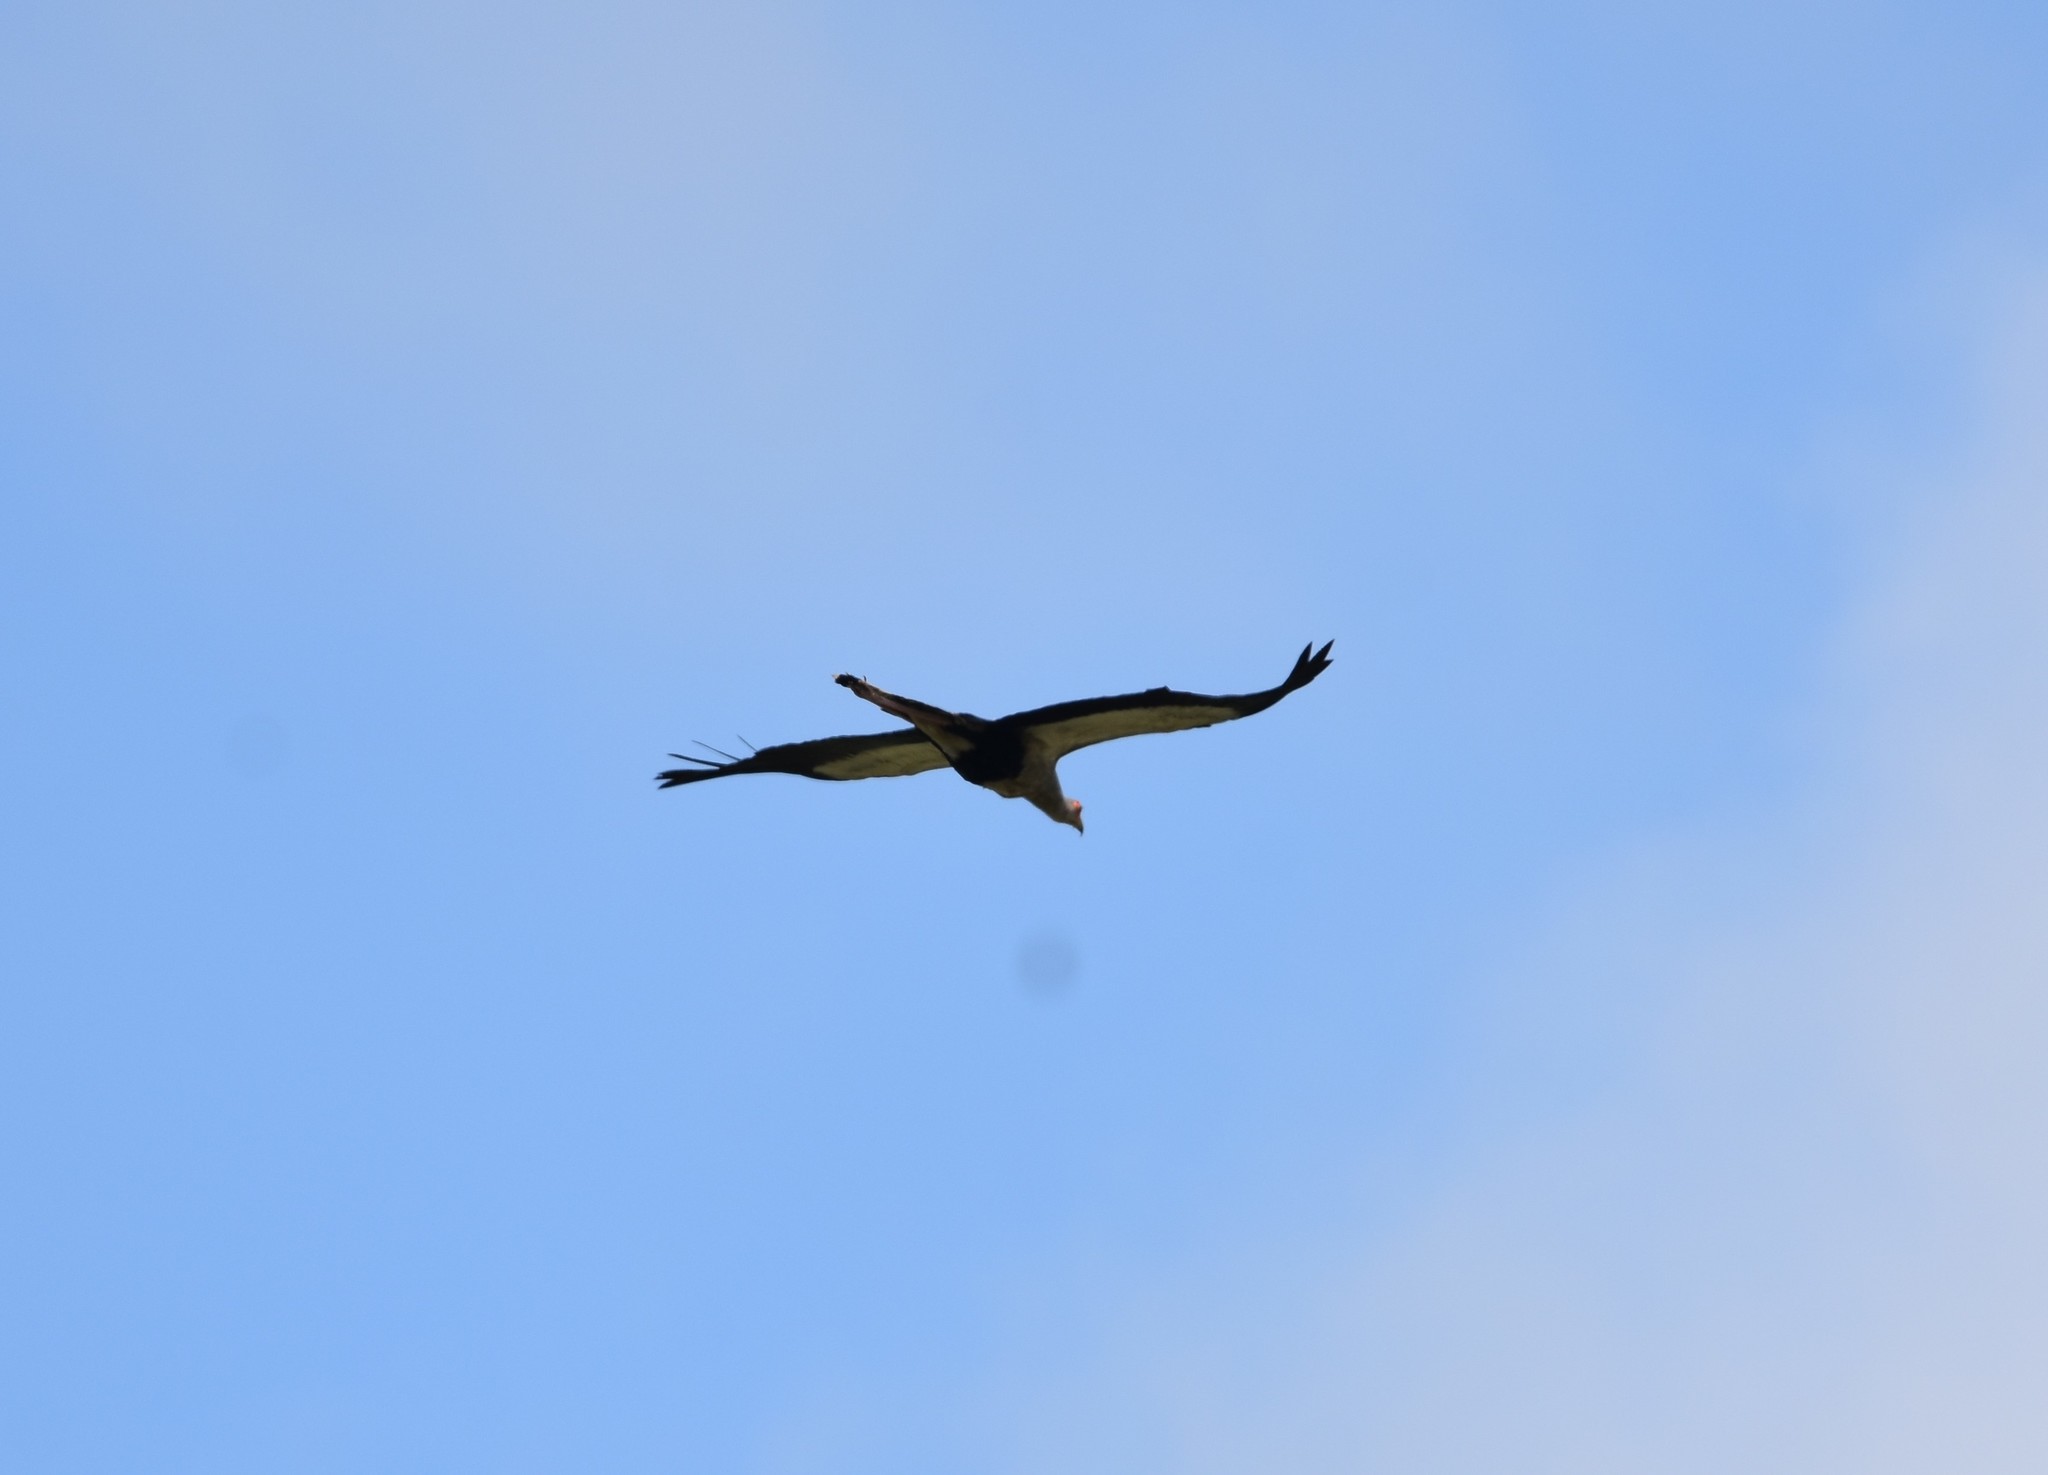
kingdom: Animalia
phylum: Chordata
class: Aves
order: Accipitriformes
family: Sagittariidae
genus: Sagittarius
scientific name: Sagittarius serpentarius
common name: Secretarybird
